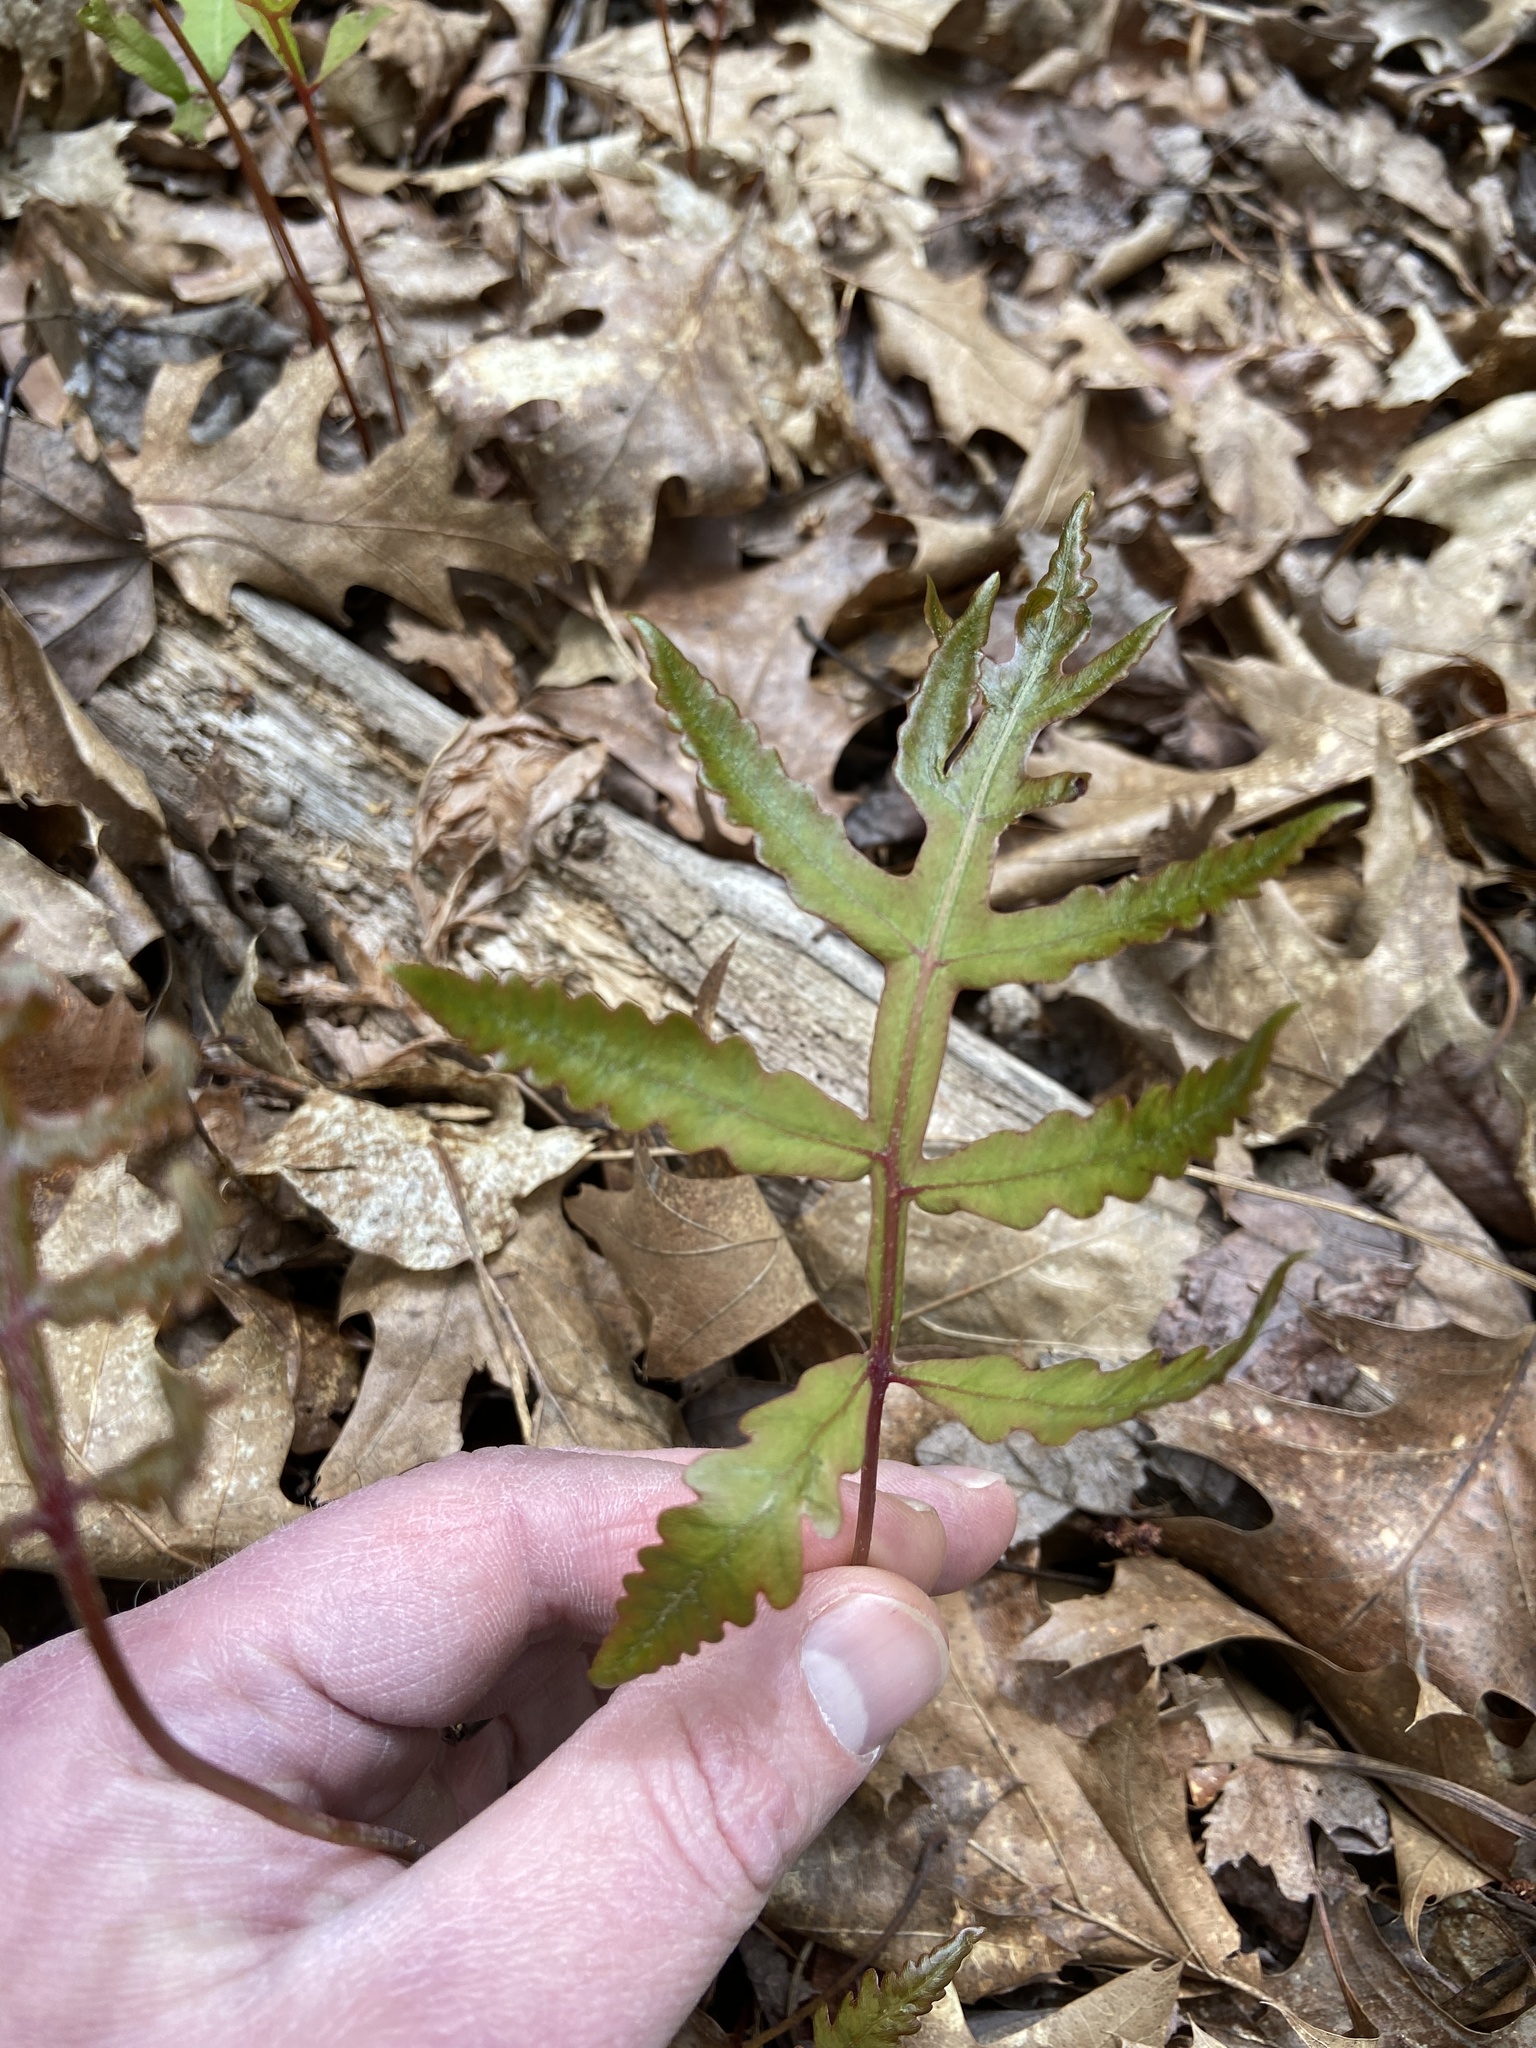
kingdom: Plantae
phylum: Tracheophyta
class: Polypodiopsida
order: Polypodiales
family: Onocleaceae
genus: Onoclea
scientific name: Onoclea sensibilis
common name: Sensitive fern
